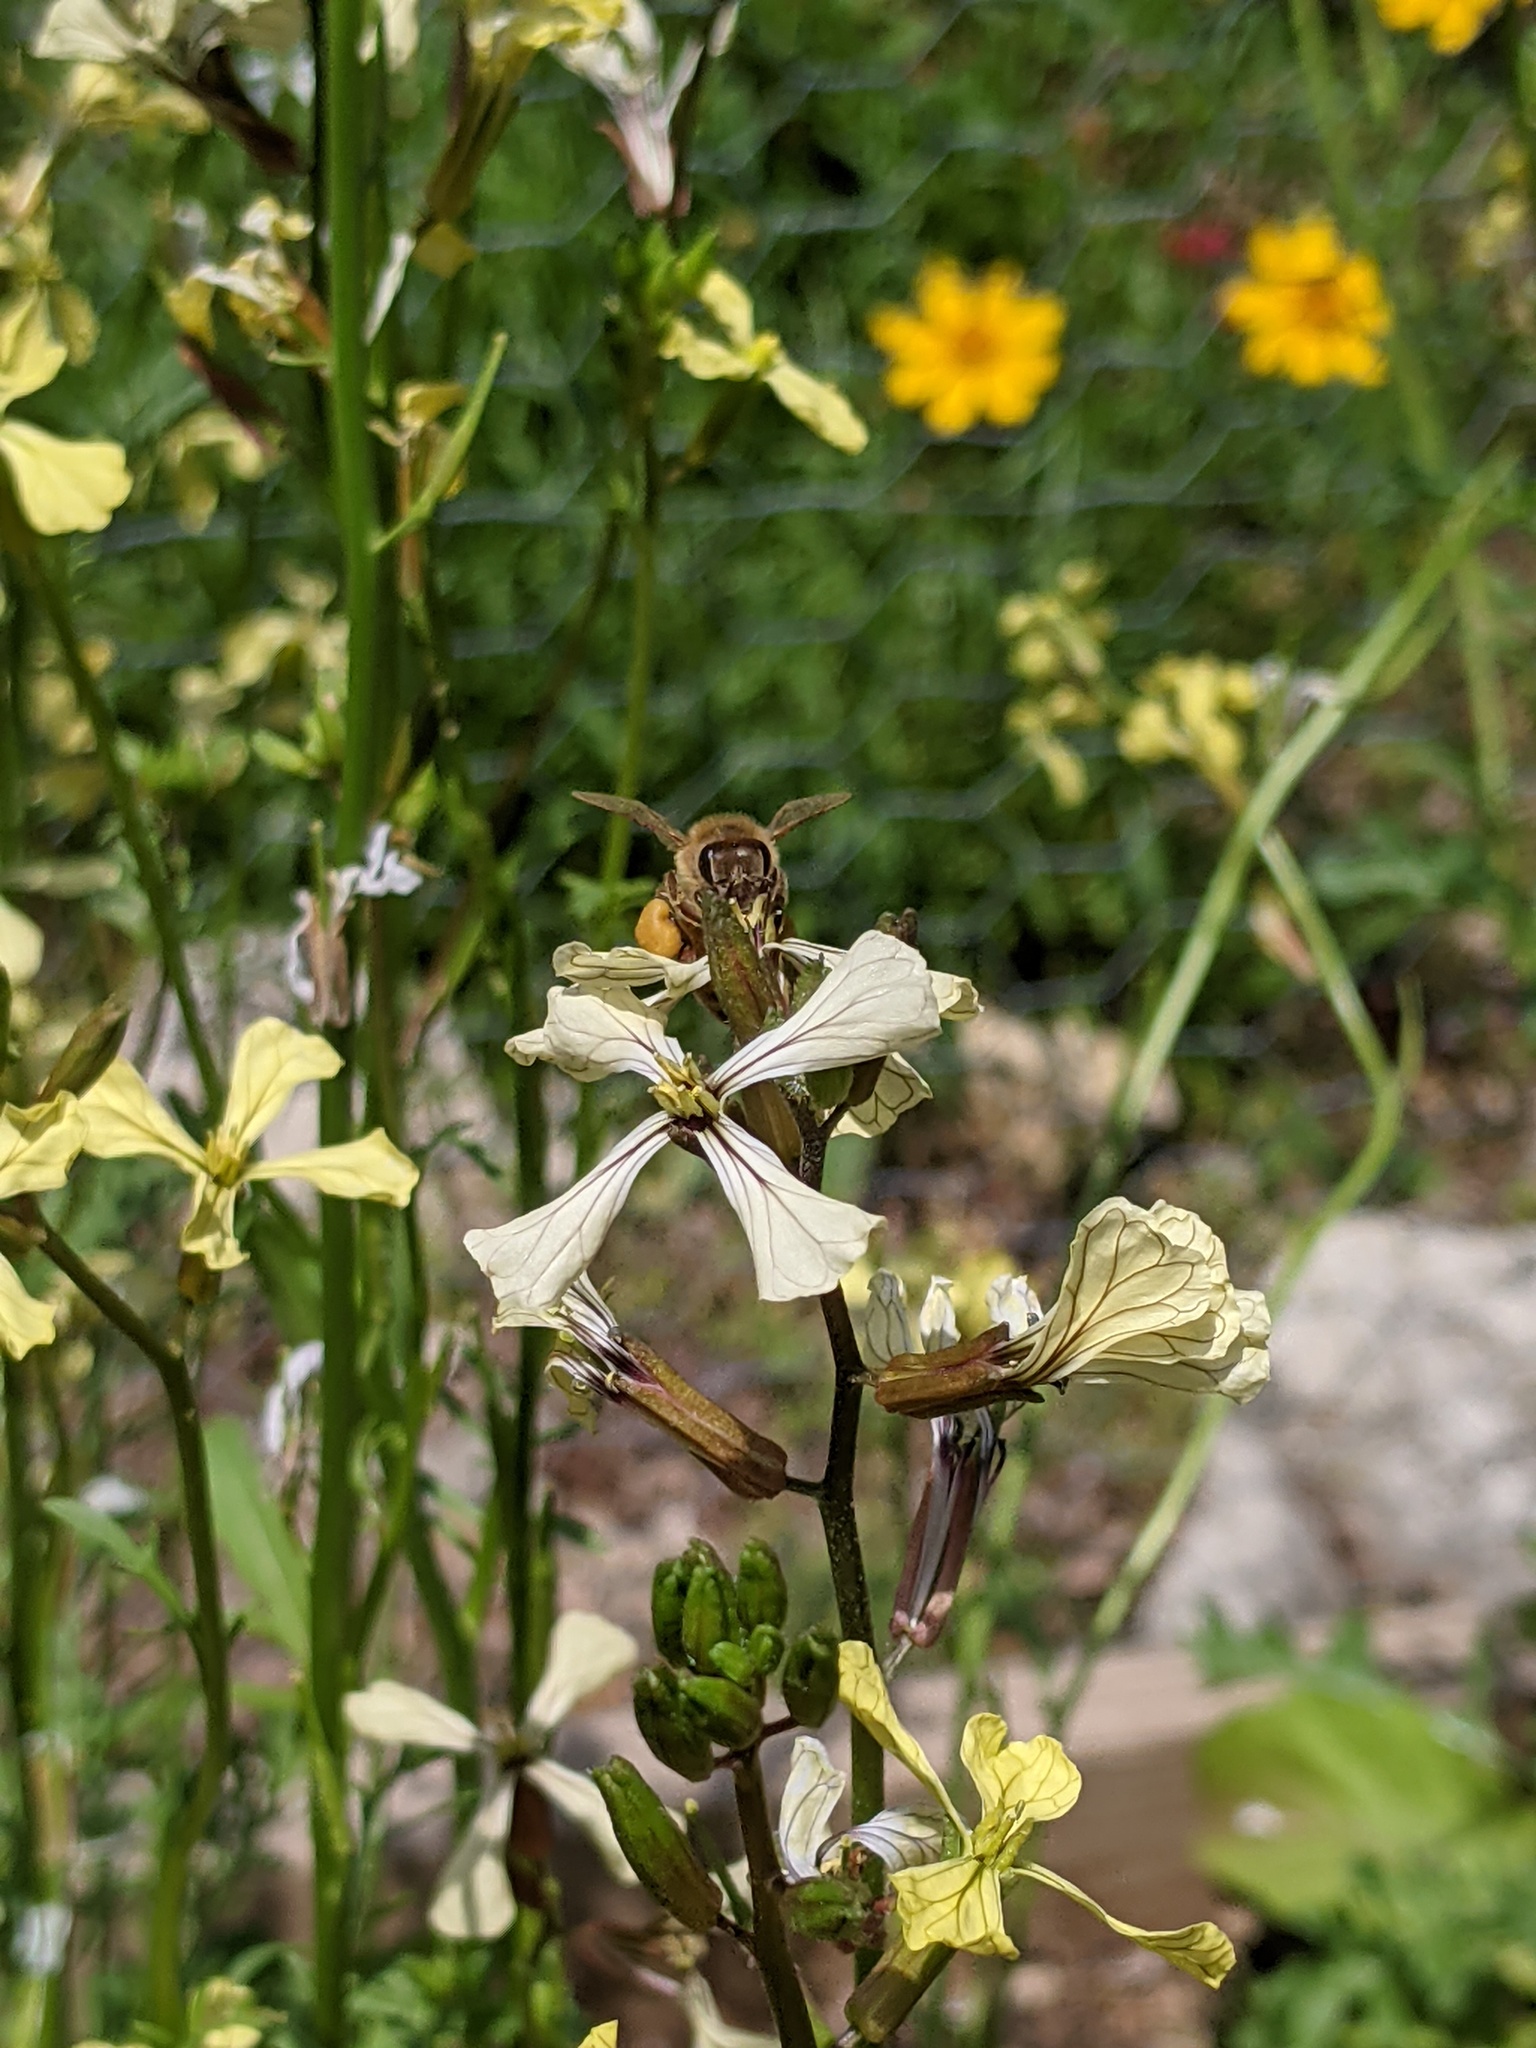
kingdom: Animalia
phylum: Arthropoda
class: Insecta
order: Hymenoptera
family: Apidae
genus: Apis
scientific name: Apis mellifera
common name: Honey bee
